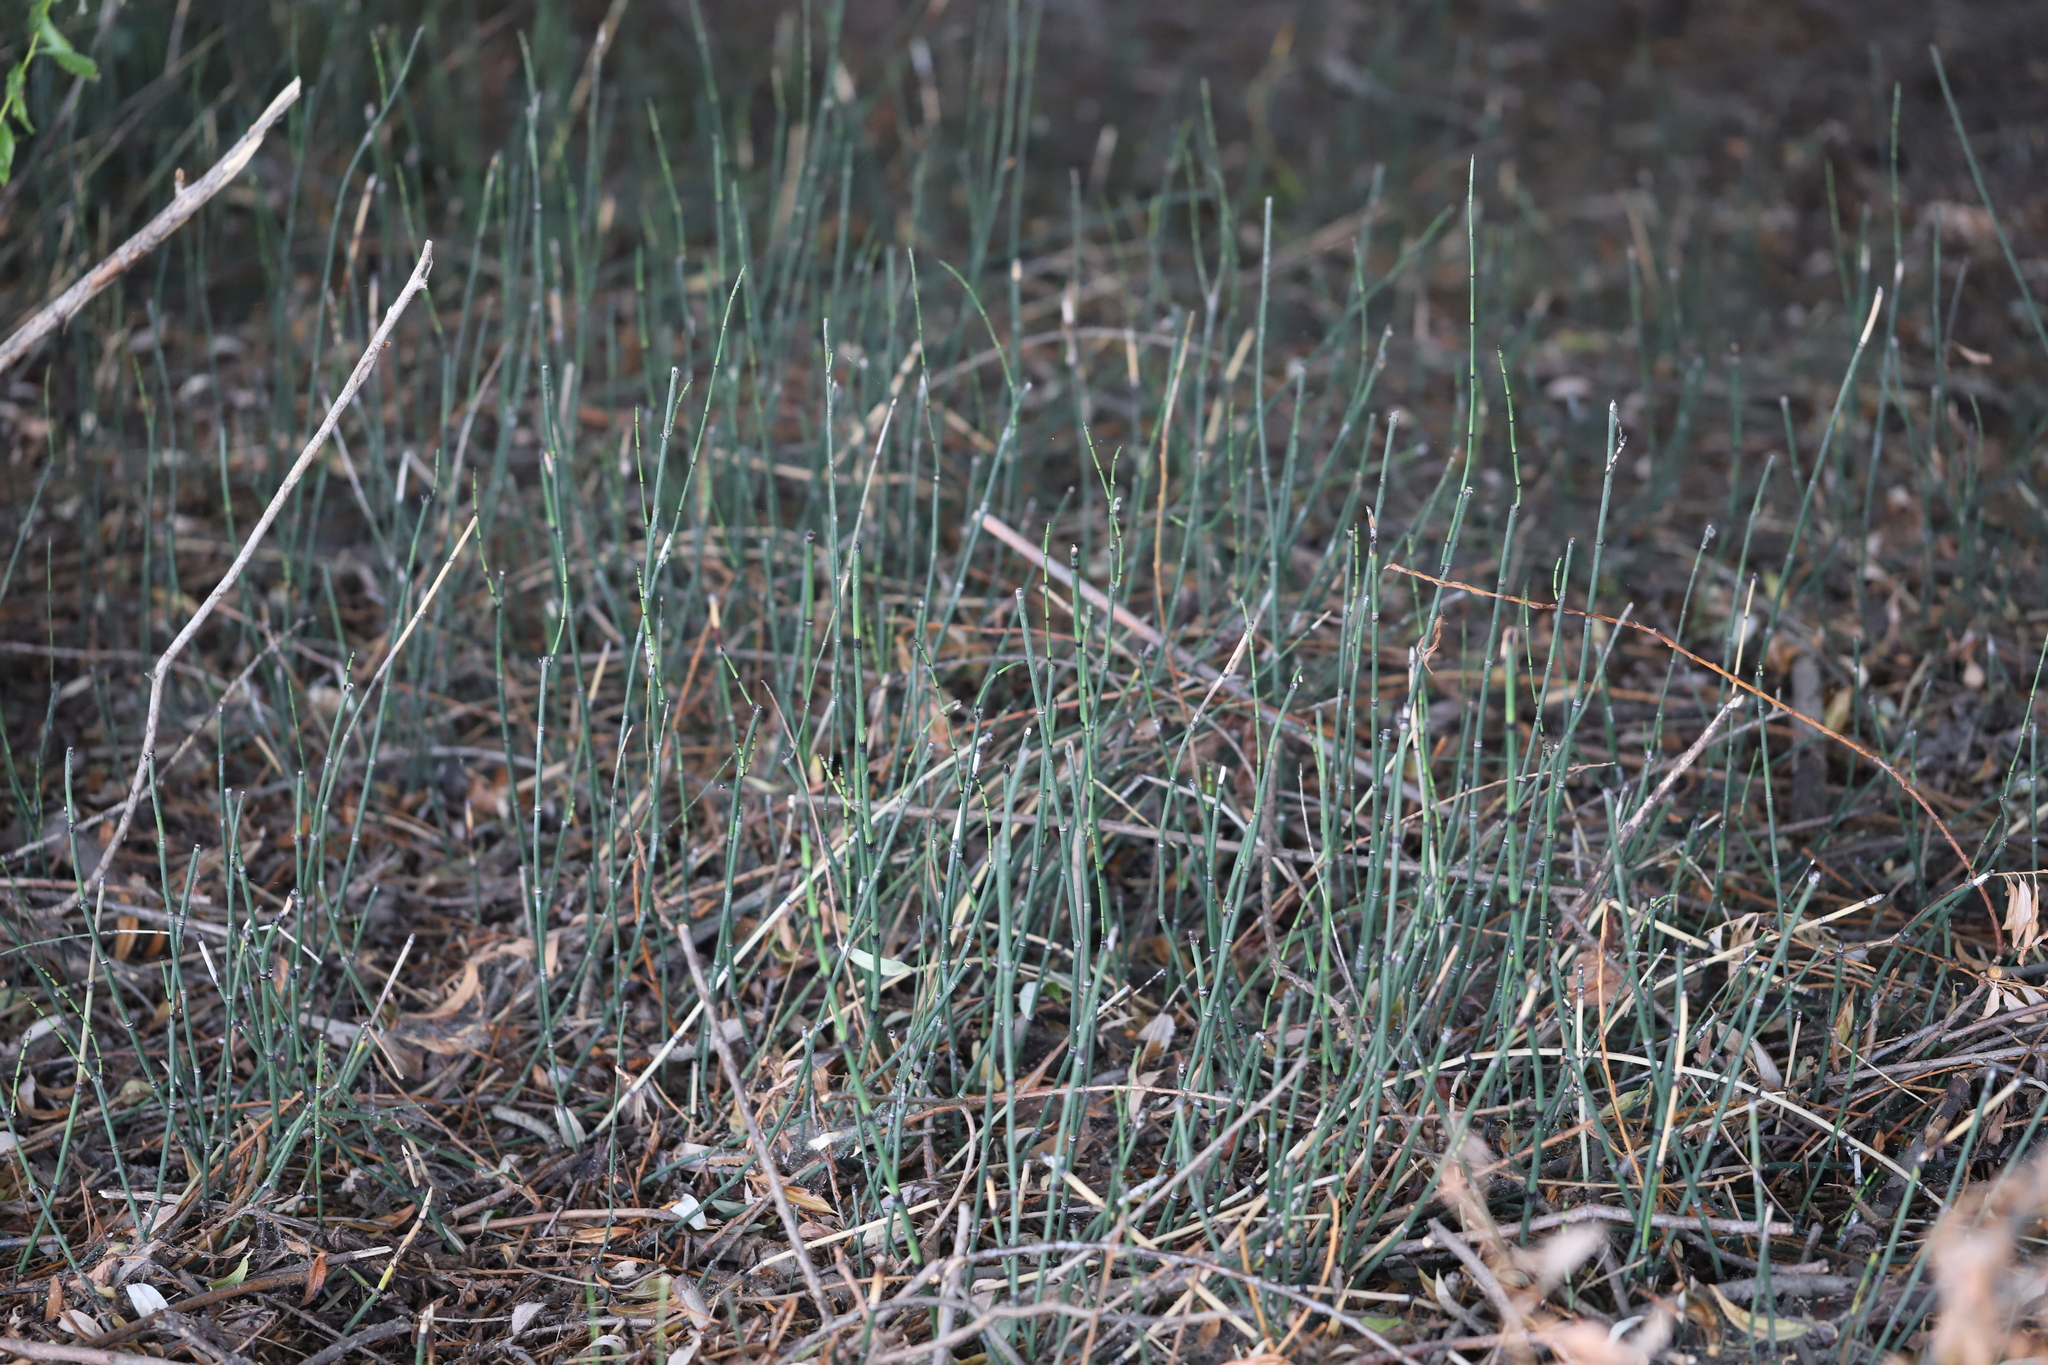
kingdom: Plantae
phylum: Tracheophyta
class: Polypodiopsida
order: Equisetales
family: Equisetaceae
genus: Equisetum
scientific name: Equisetum praealtum
